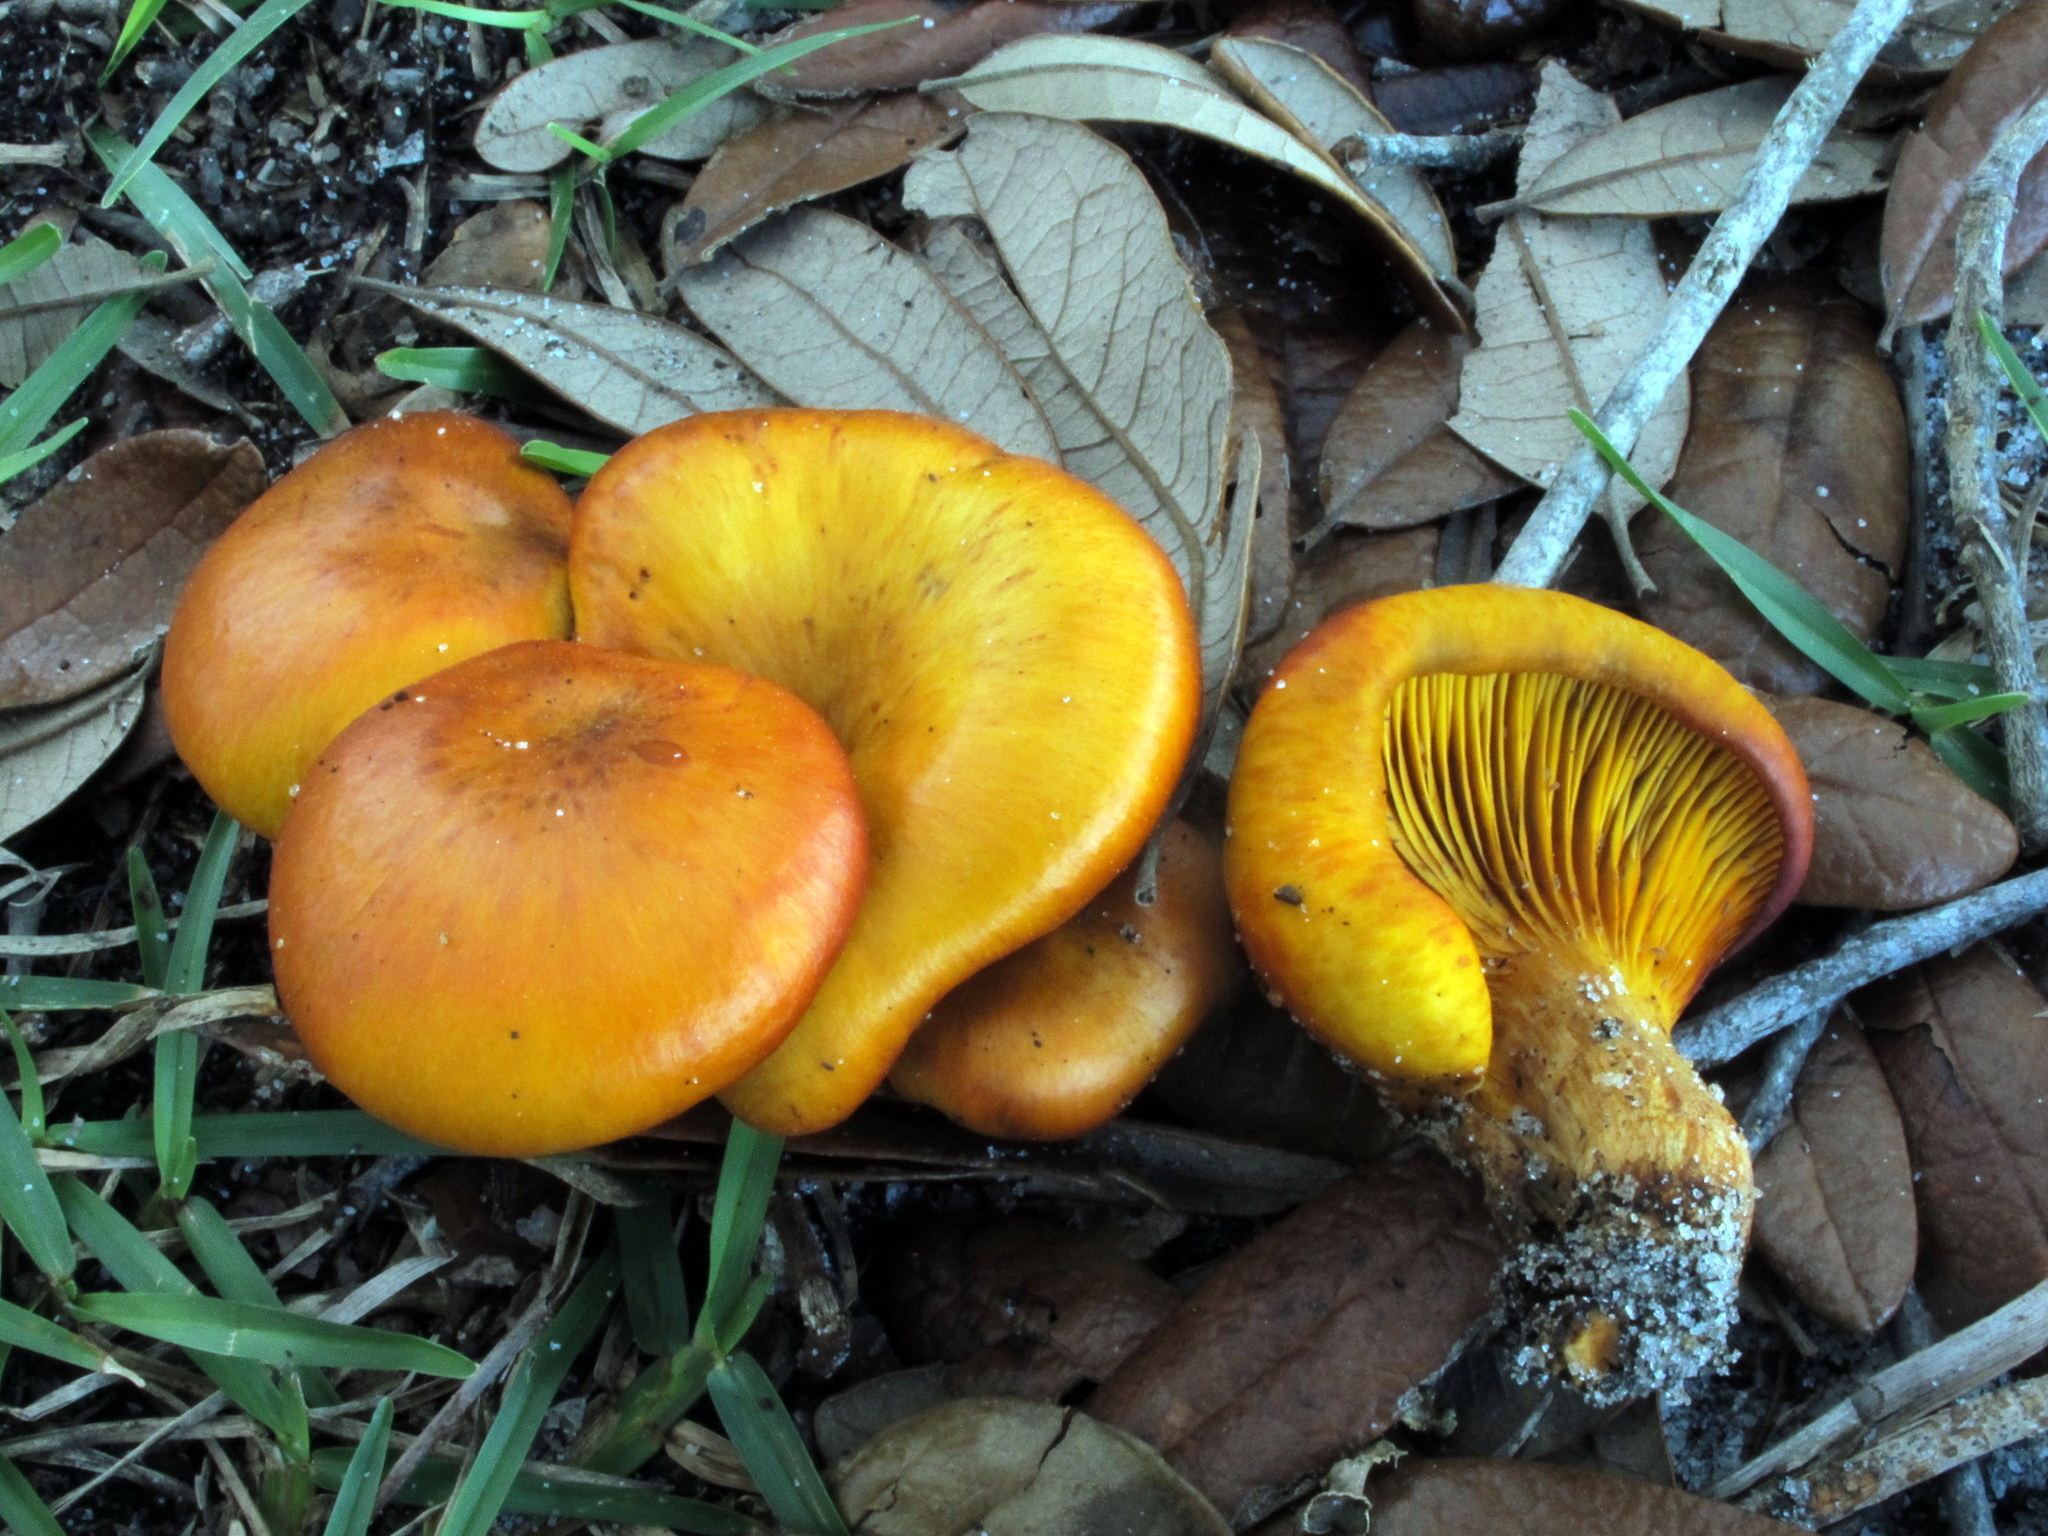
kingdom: Fungi
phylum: Basidiomycota
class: Agaricomycetes
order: Agaricales
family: Omphalotaceae
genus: Omphalotus
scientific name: Omphalotus subilludens
